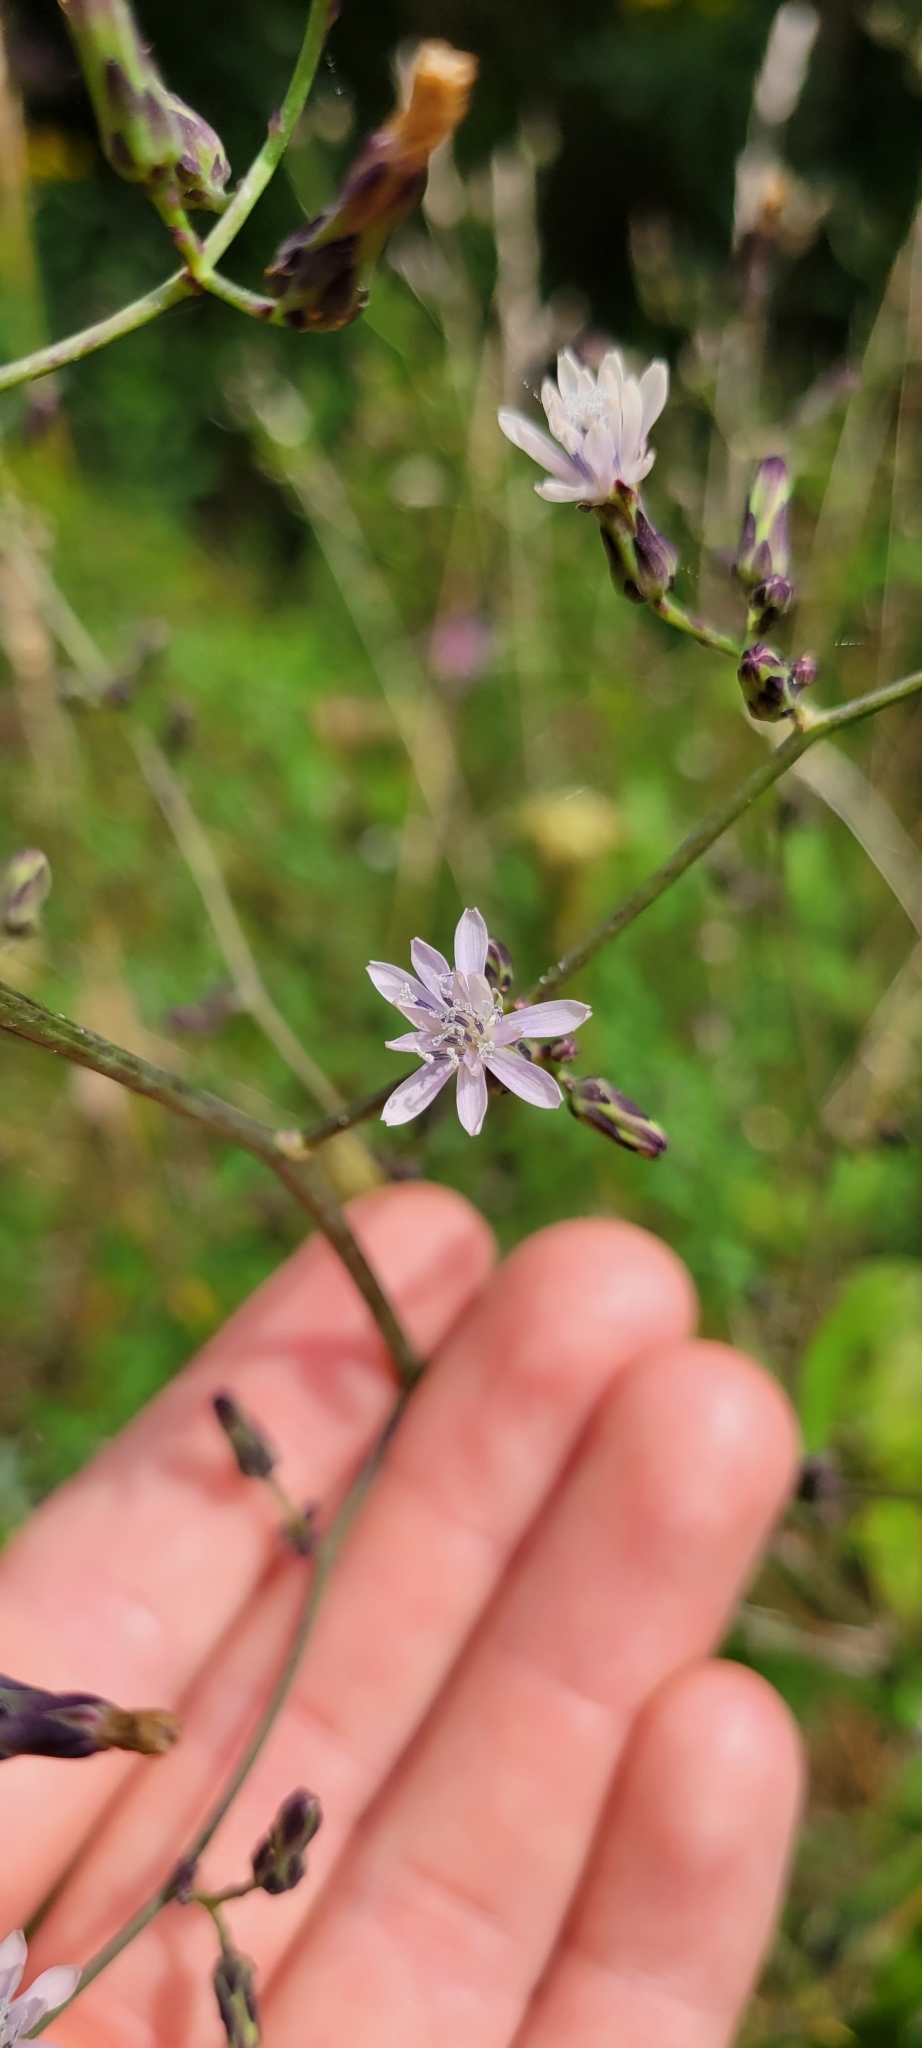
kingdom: Plantae
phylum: Tracheophyta
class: Magnoliopsida
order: Asterales
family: Asteraceae
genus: Lactuca
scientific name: Lactuca floridana
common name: Woodland lettuce
